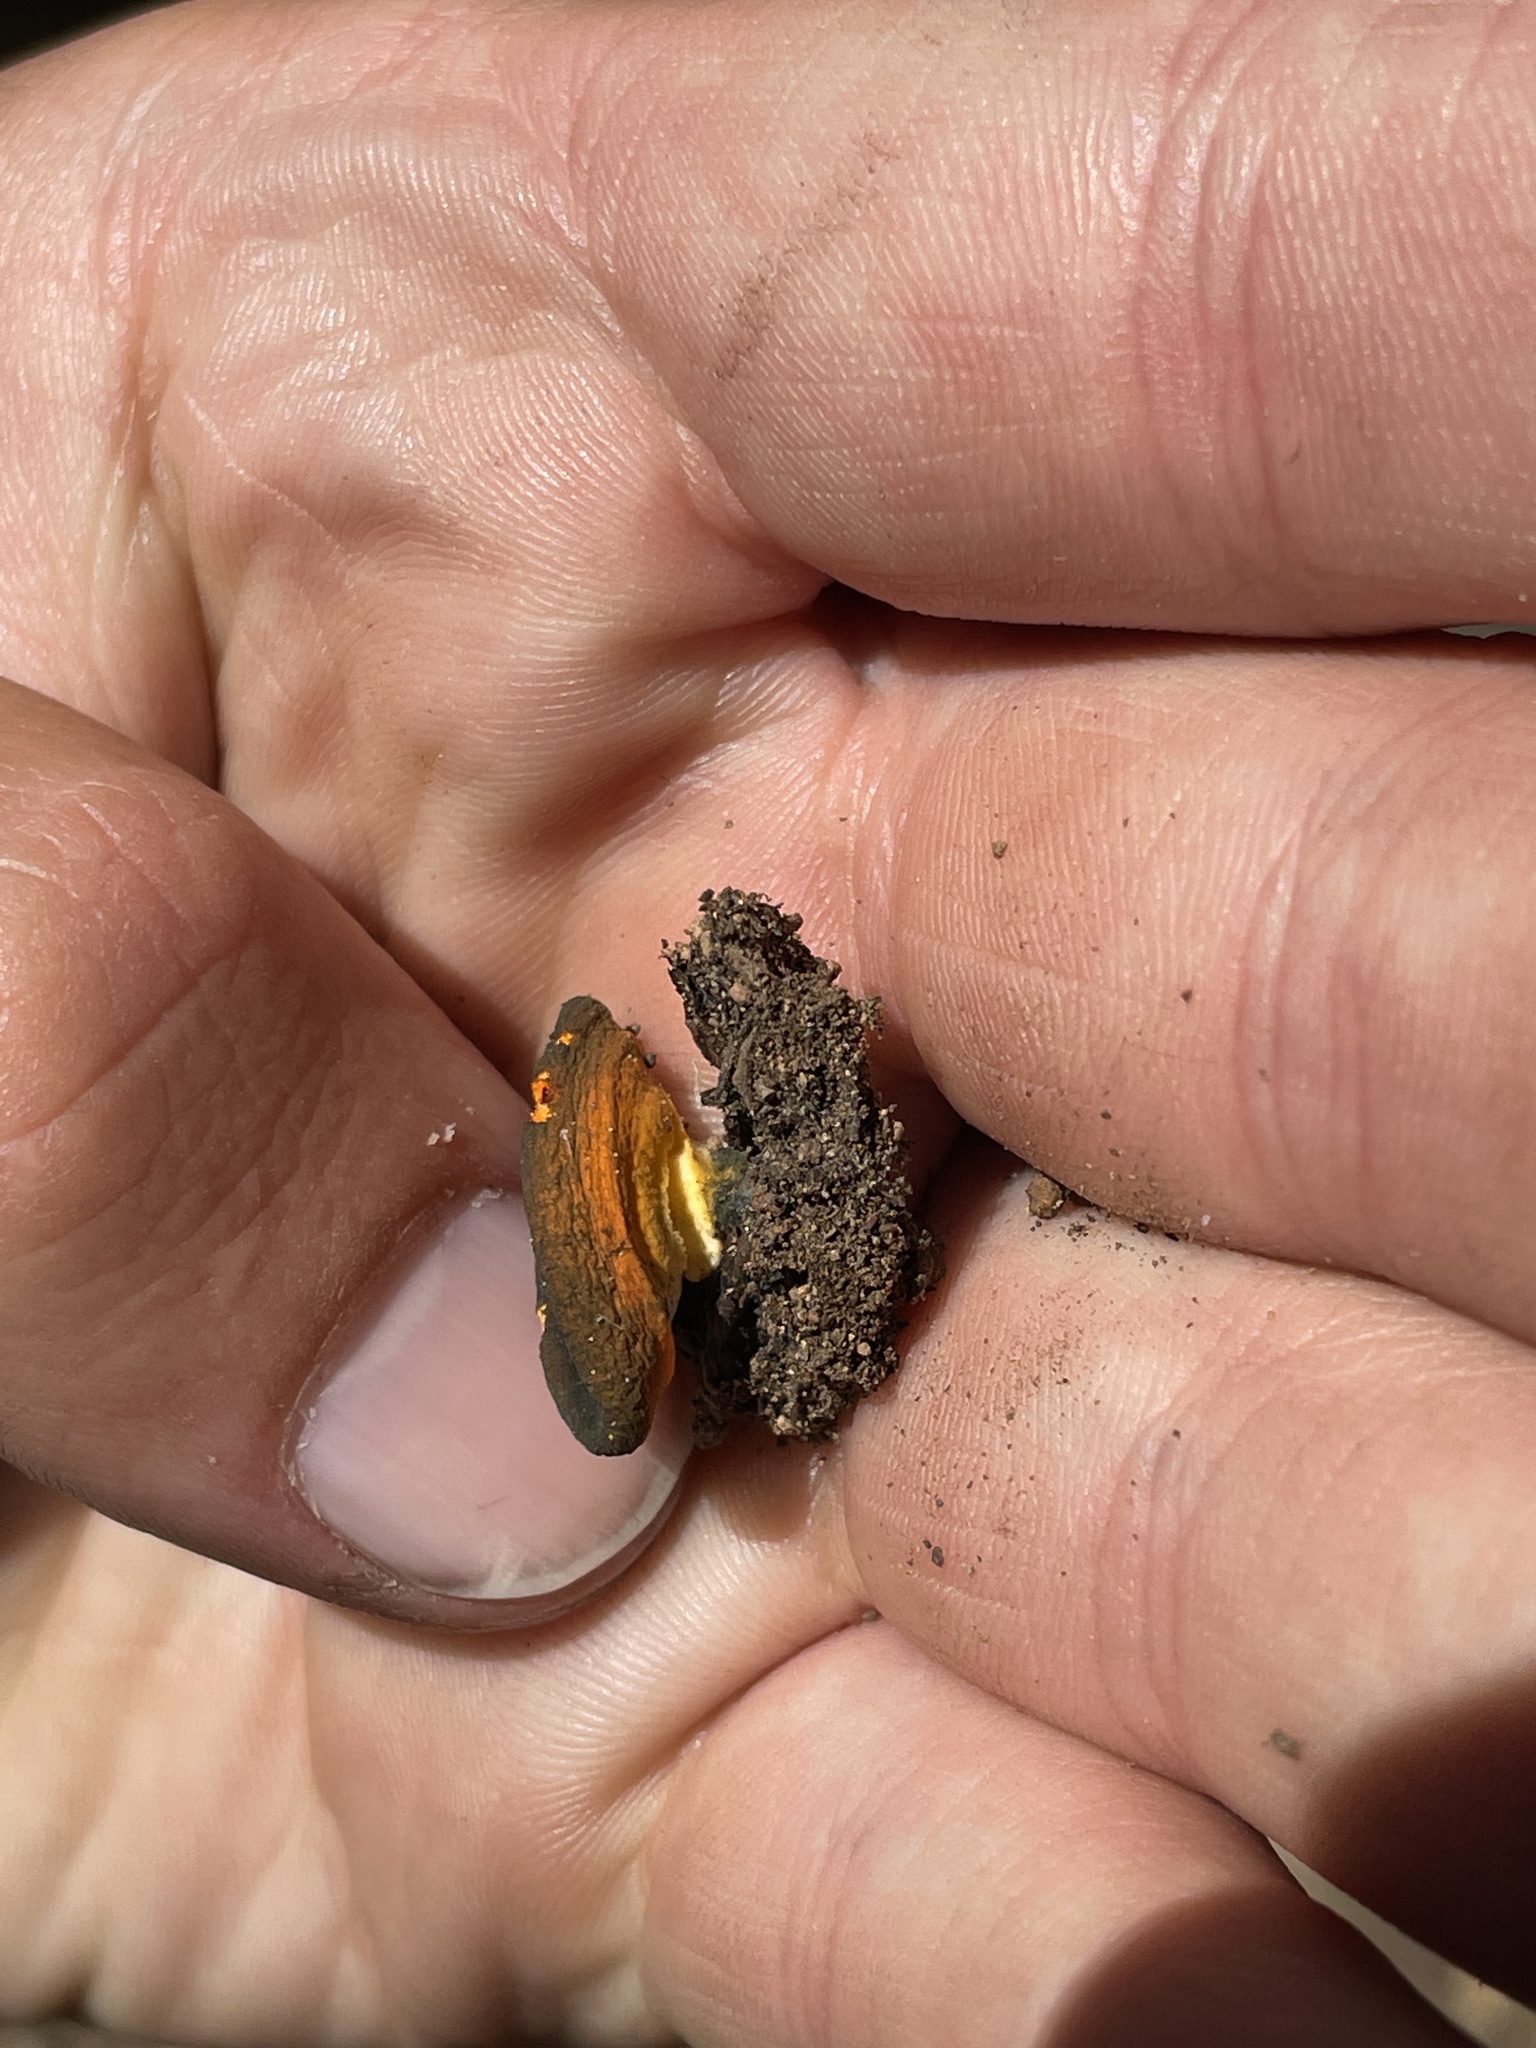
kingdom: Fungi
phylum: Ascomycota
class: Pezizomycetes
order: Pezizales
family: Caloscyphaceae
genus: Caloscypha
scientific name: Caloscypha fulgens
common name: Golden cup
